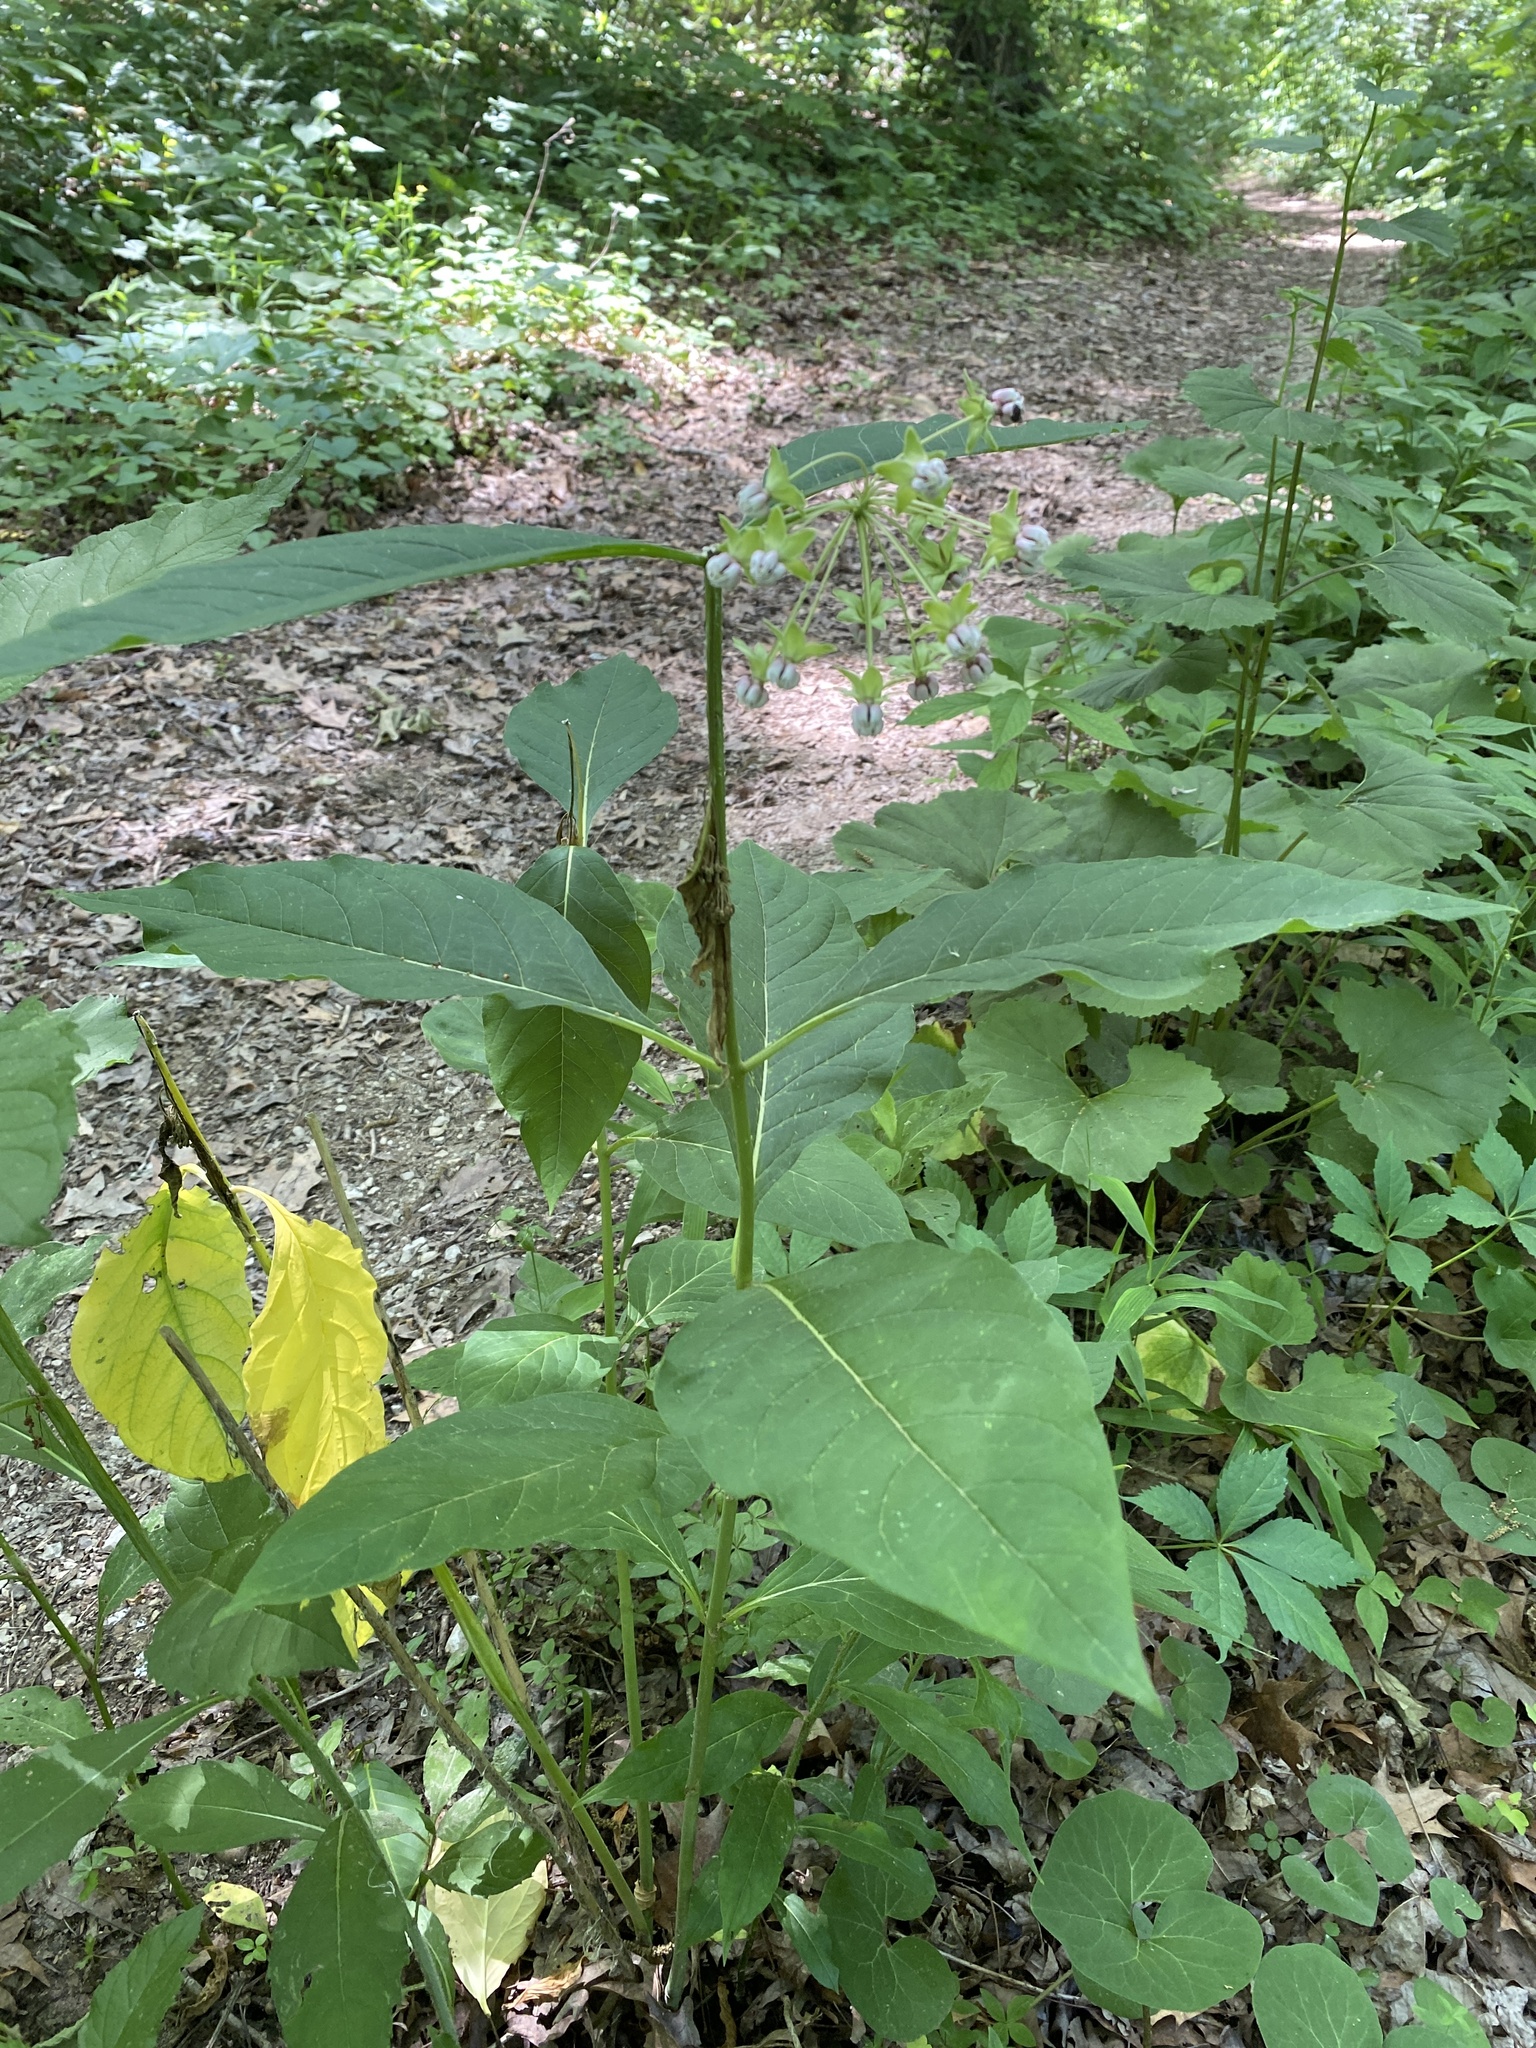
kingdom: Plantae
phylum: Tracheophyta
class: Magnoliopsida
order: Gentianales
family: Apocynaceae
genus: Asclepias
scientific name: Asclepias exaltata
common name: Poke milkweed
